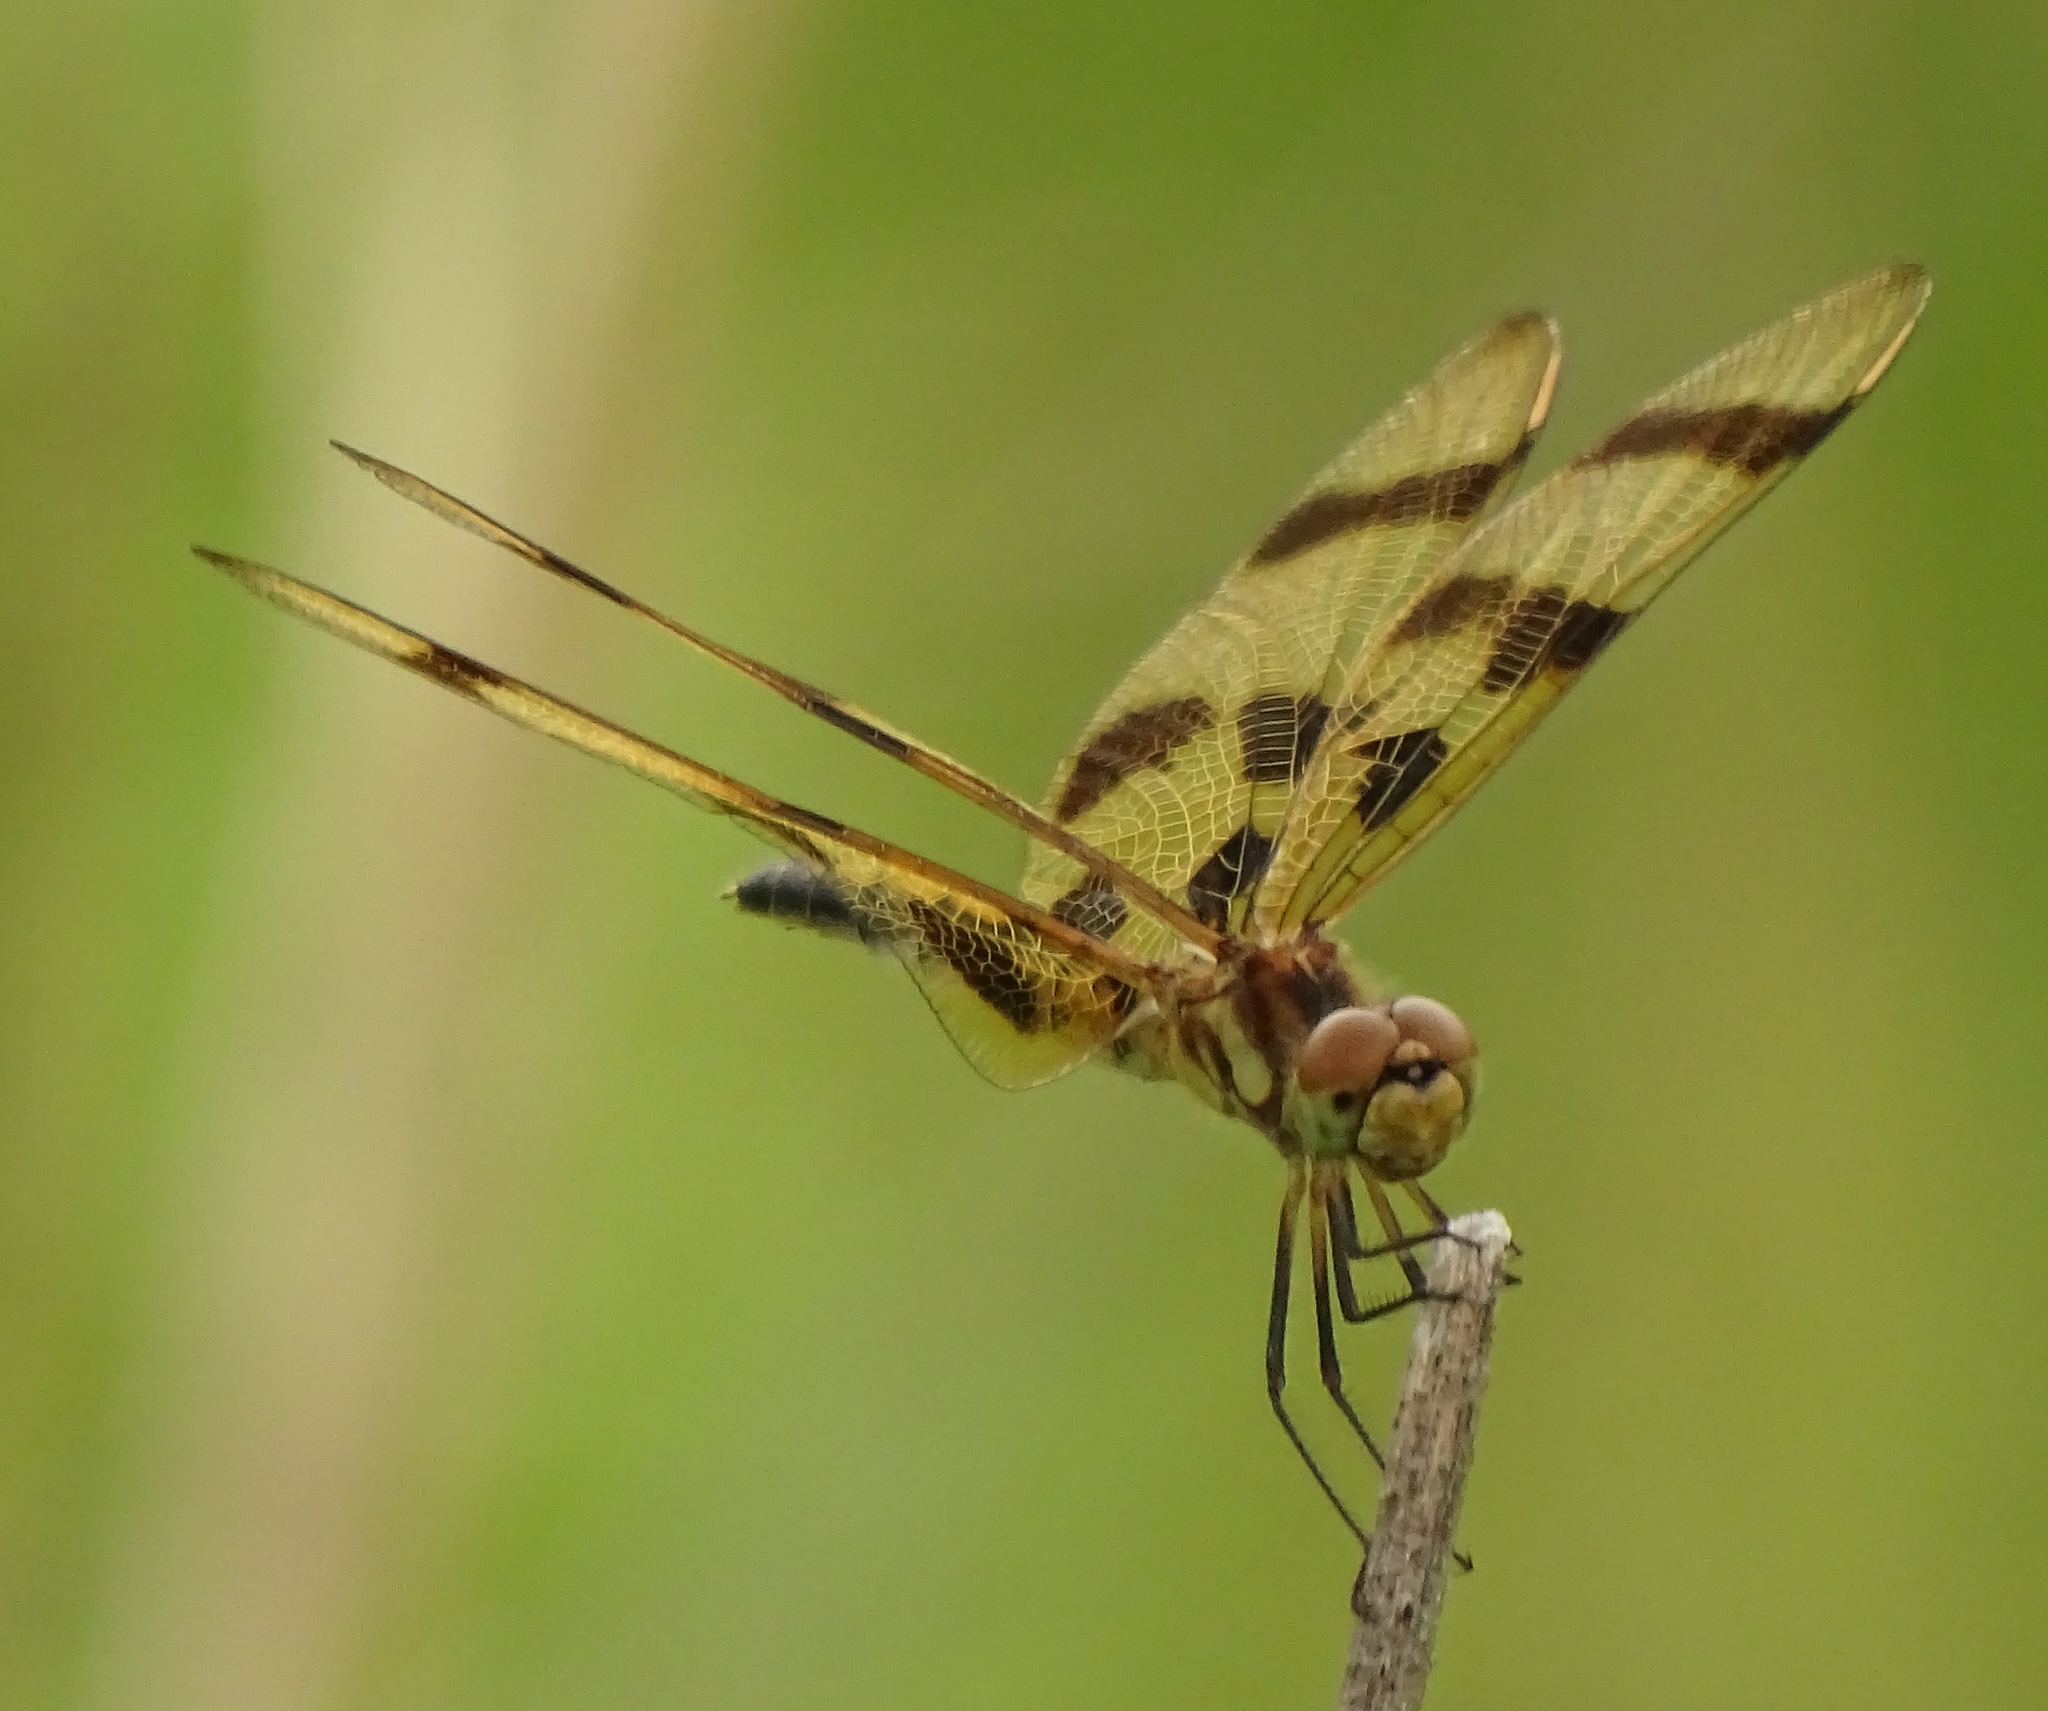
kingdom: Animalia
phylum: Arthropoda
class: Insecta
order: Odonata
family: Libellulidae
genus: Celithemis
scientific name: Celithemis eponina
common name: Halloween pennant
